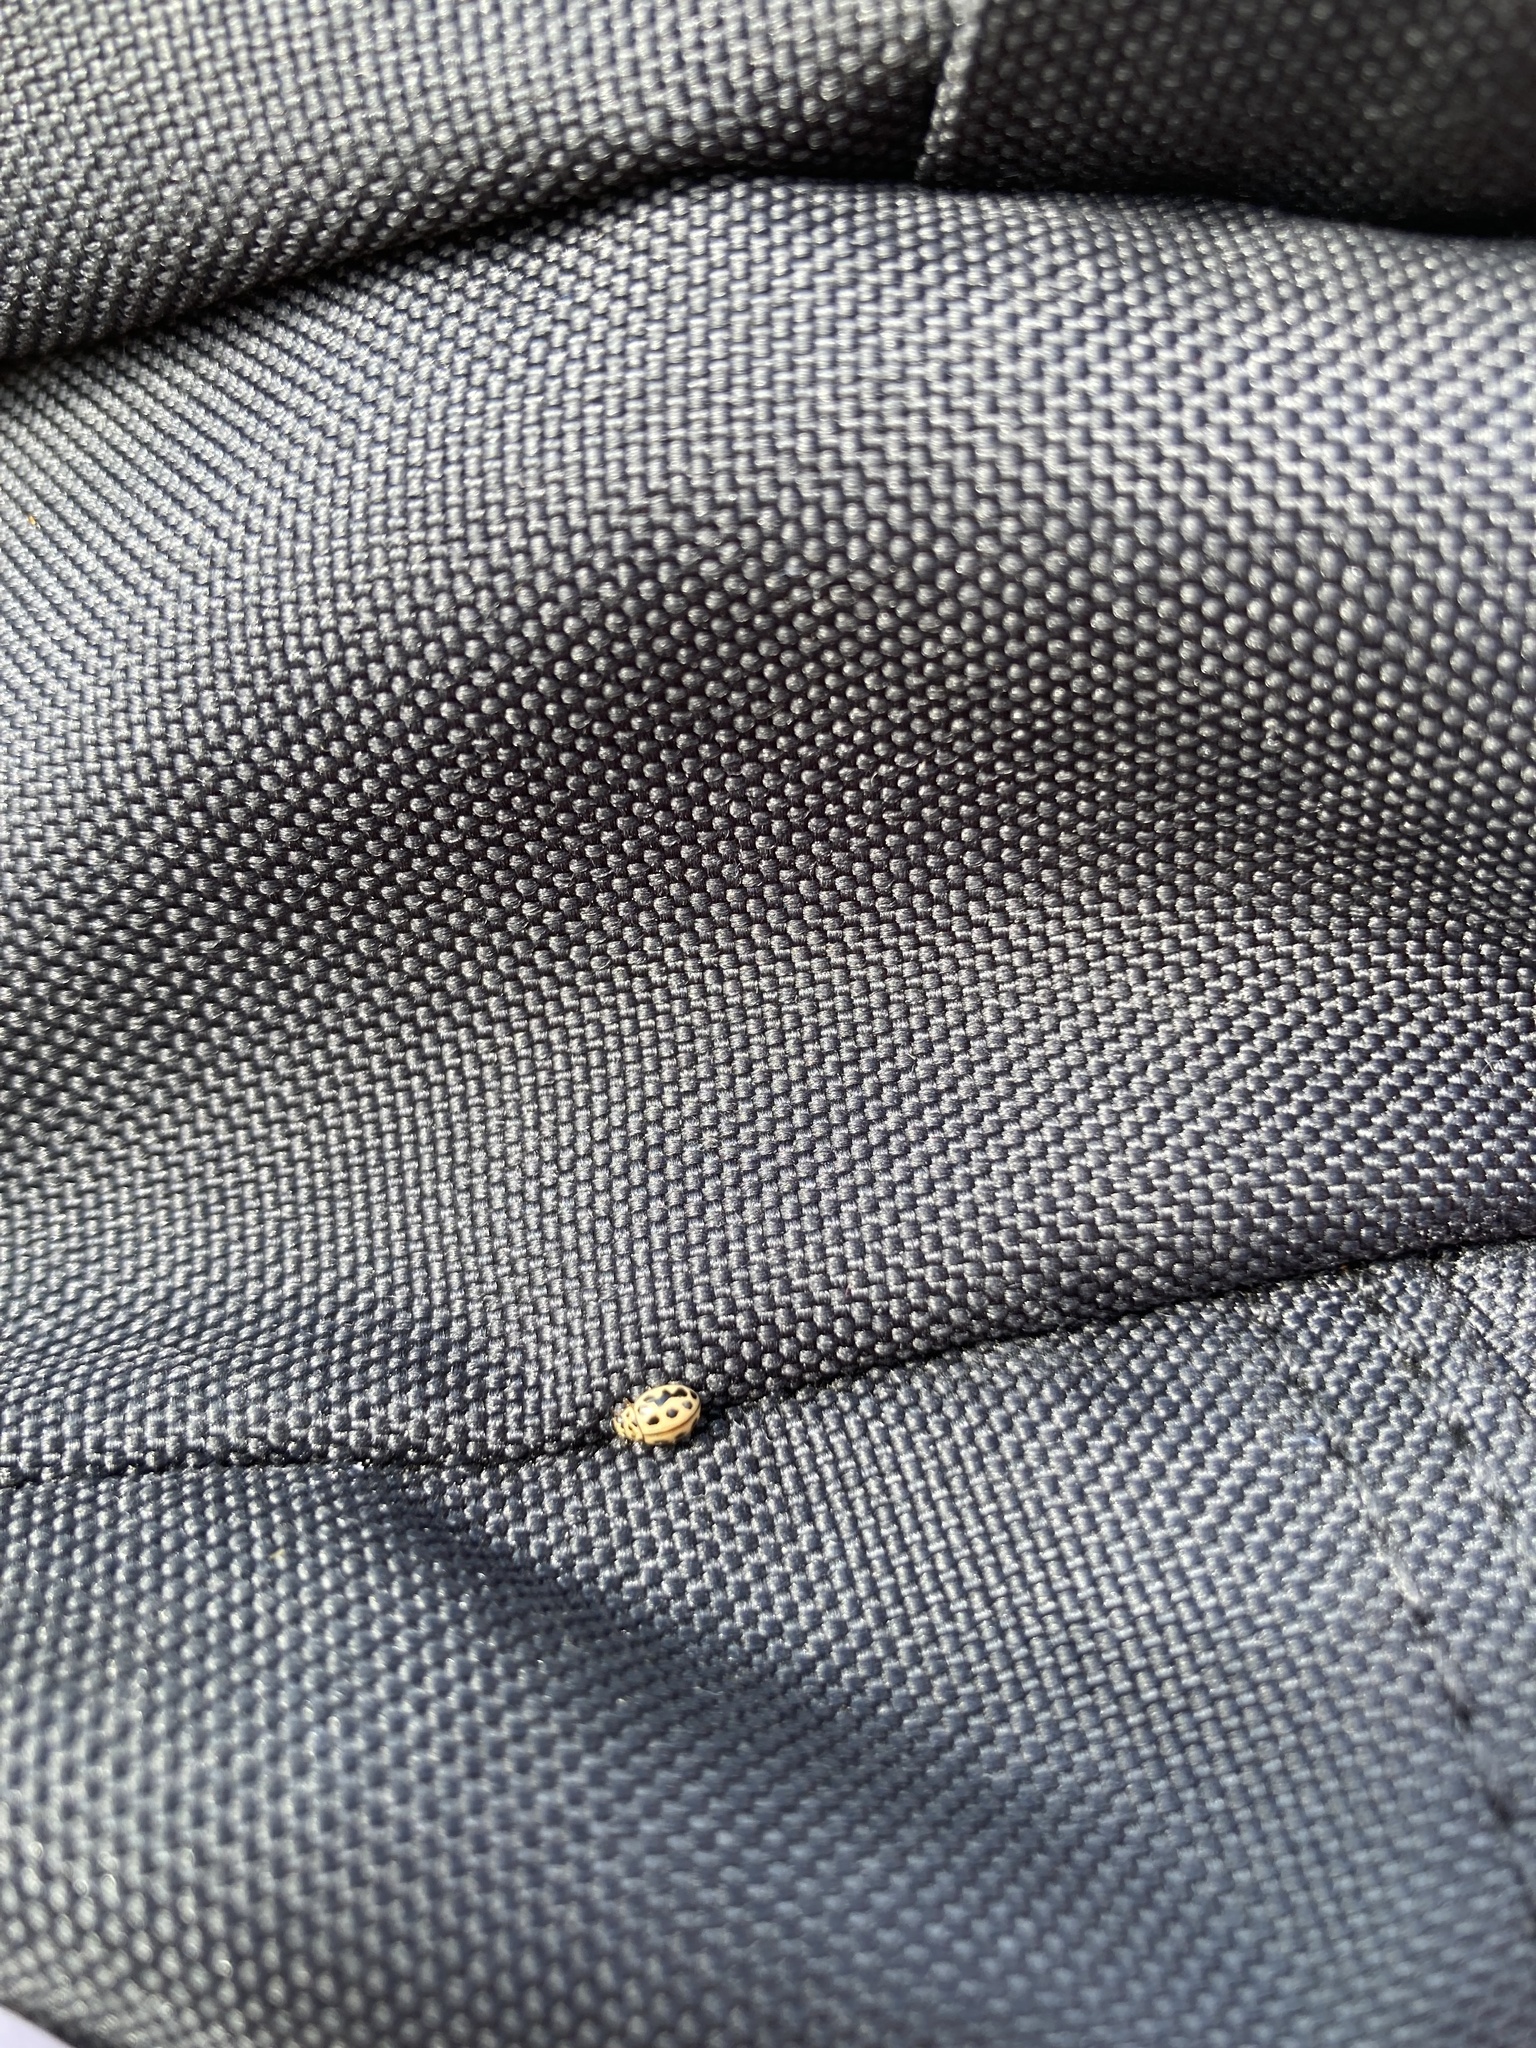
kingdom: Animalia
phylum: Arthropoda
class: Insecta
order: Coleoptera
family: Coccinellidae
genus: Tytthaspis
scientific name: Tytthaspis sedecimpunctata
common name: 16-spot ladybird
